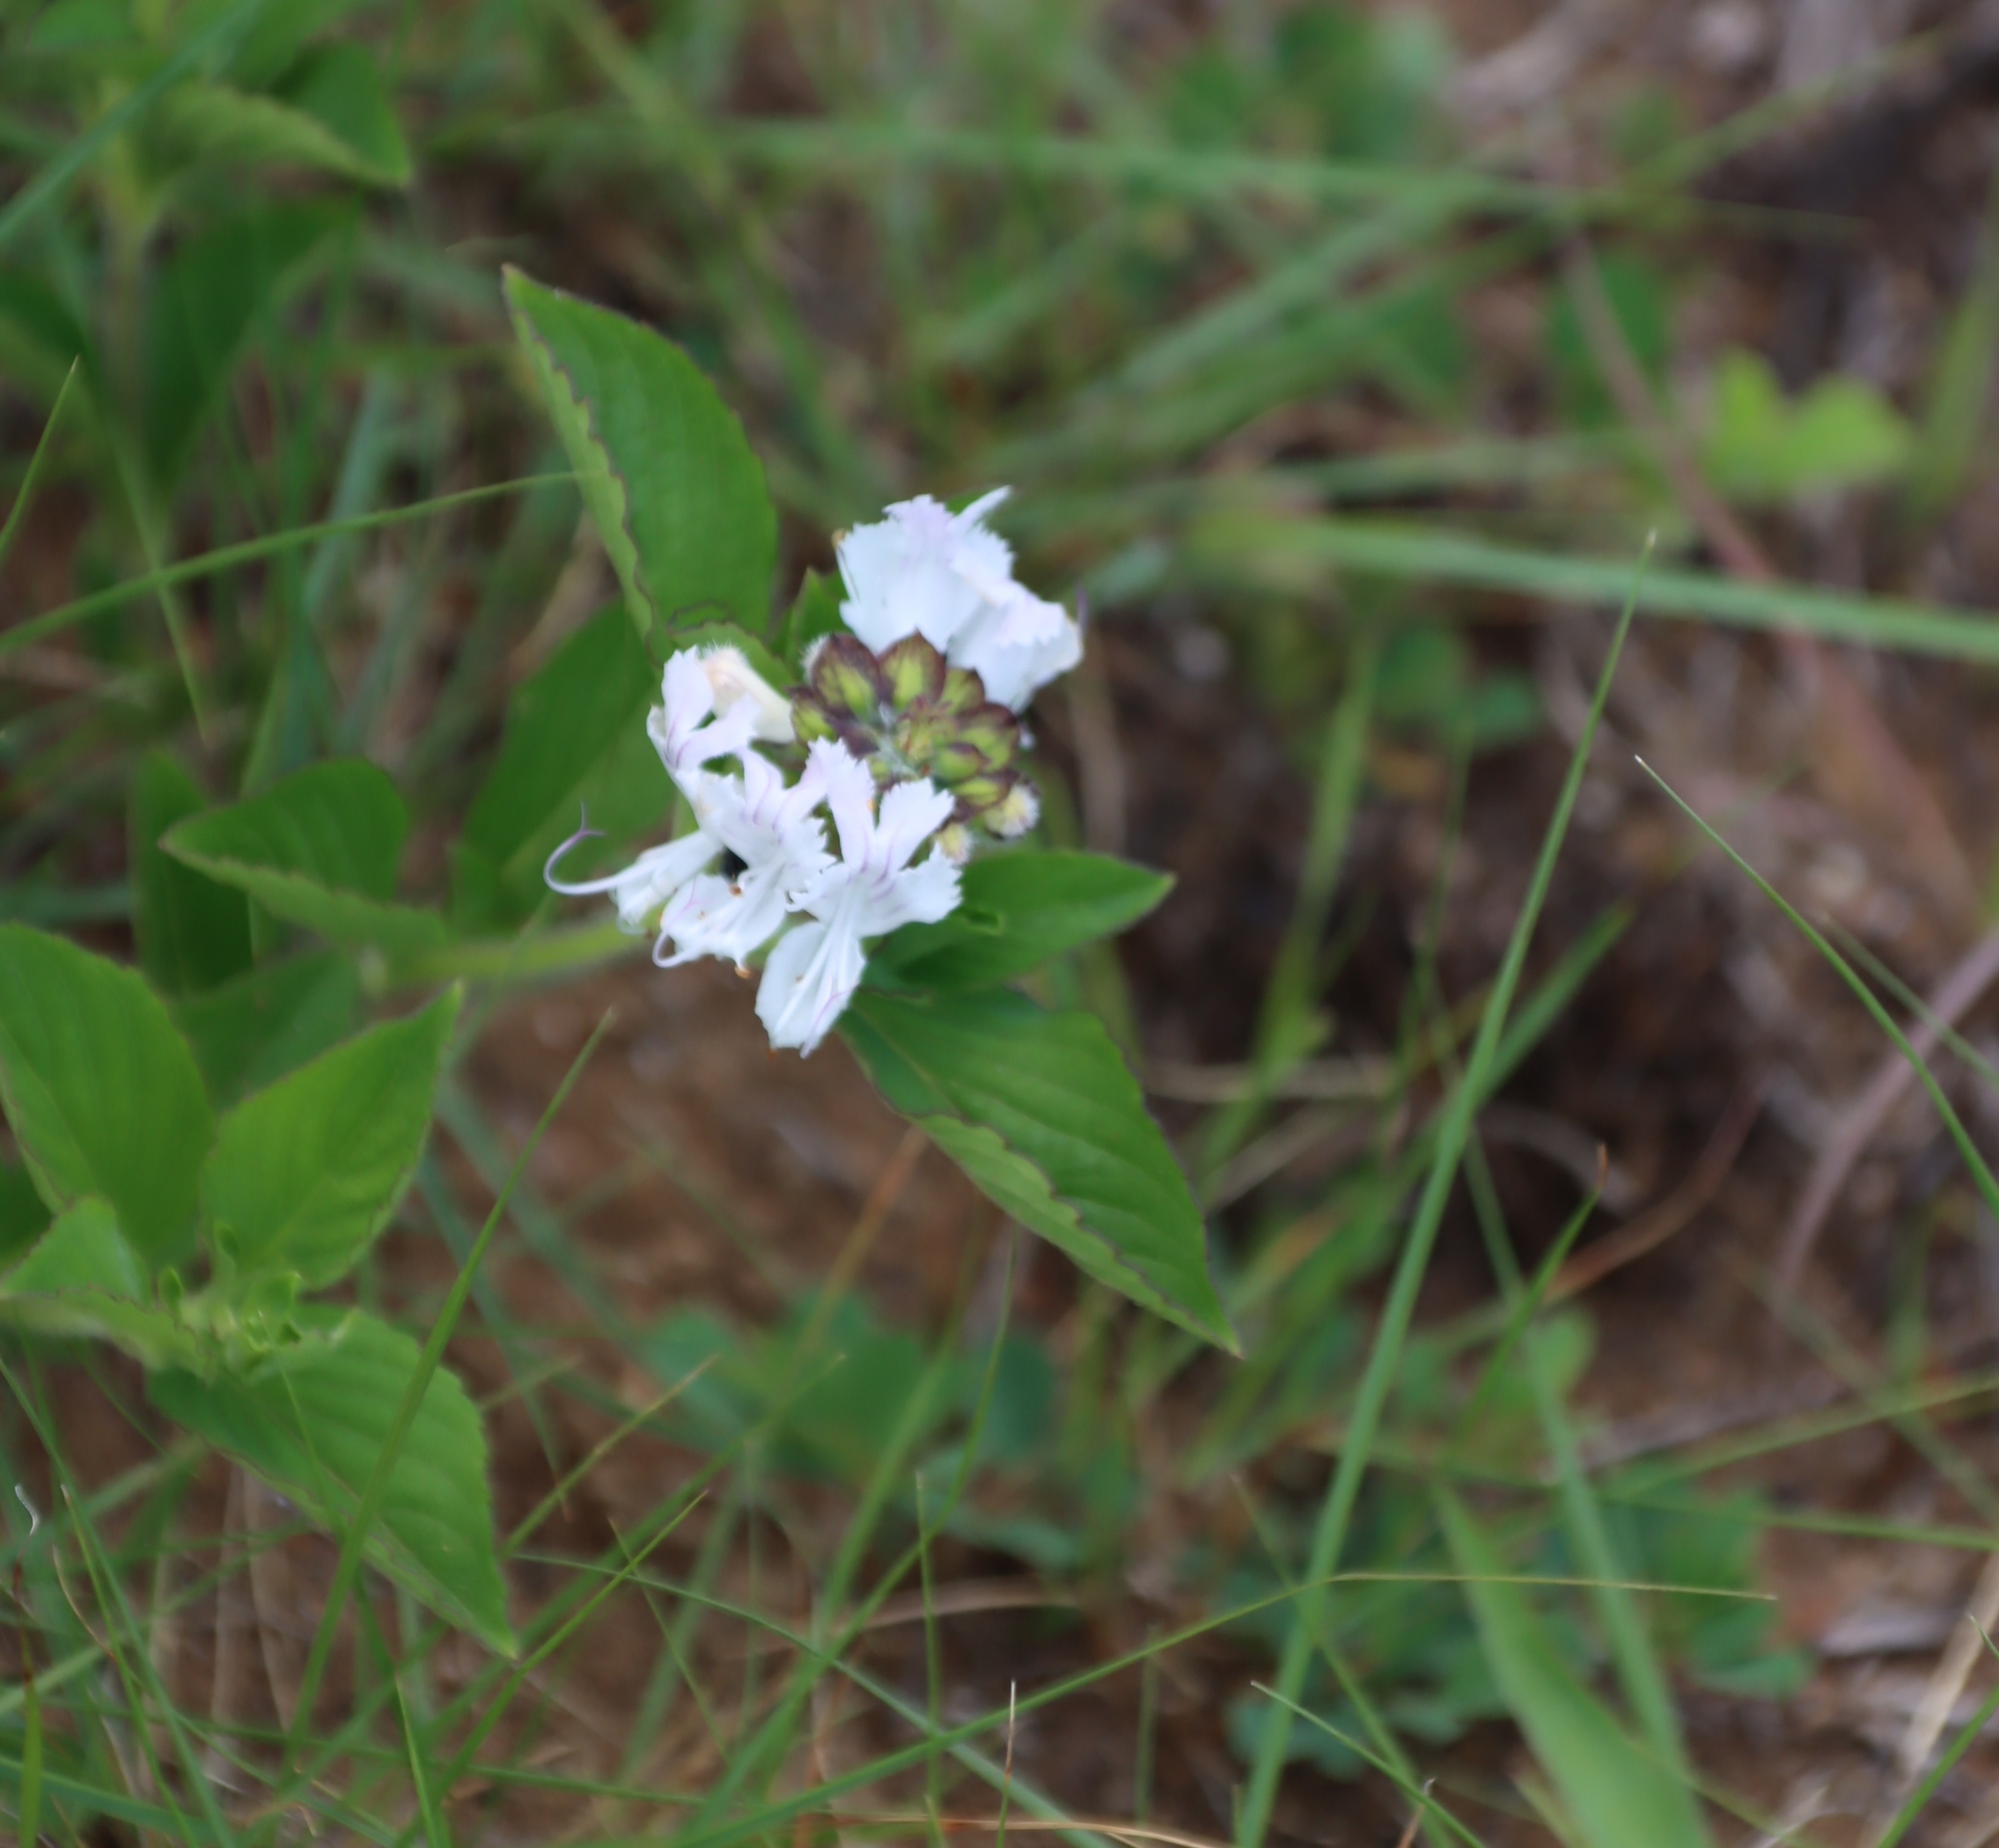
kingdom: Plantae
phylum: Tracheophyta
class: Magnoliopsida
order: Lamiales
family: Lamiaceae
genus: Ocimum
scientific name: Ocimum obovatum
